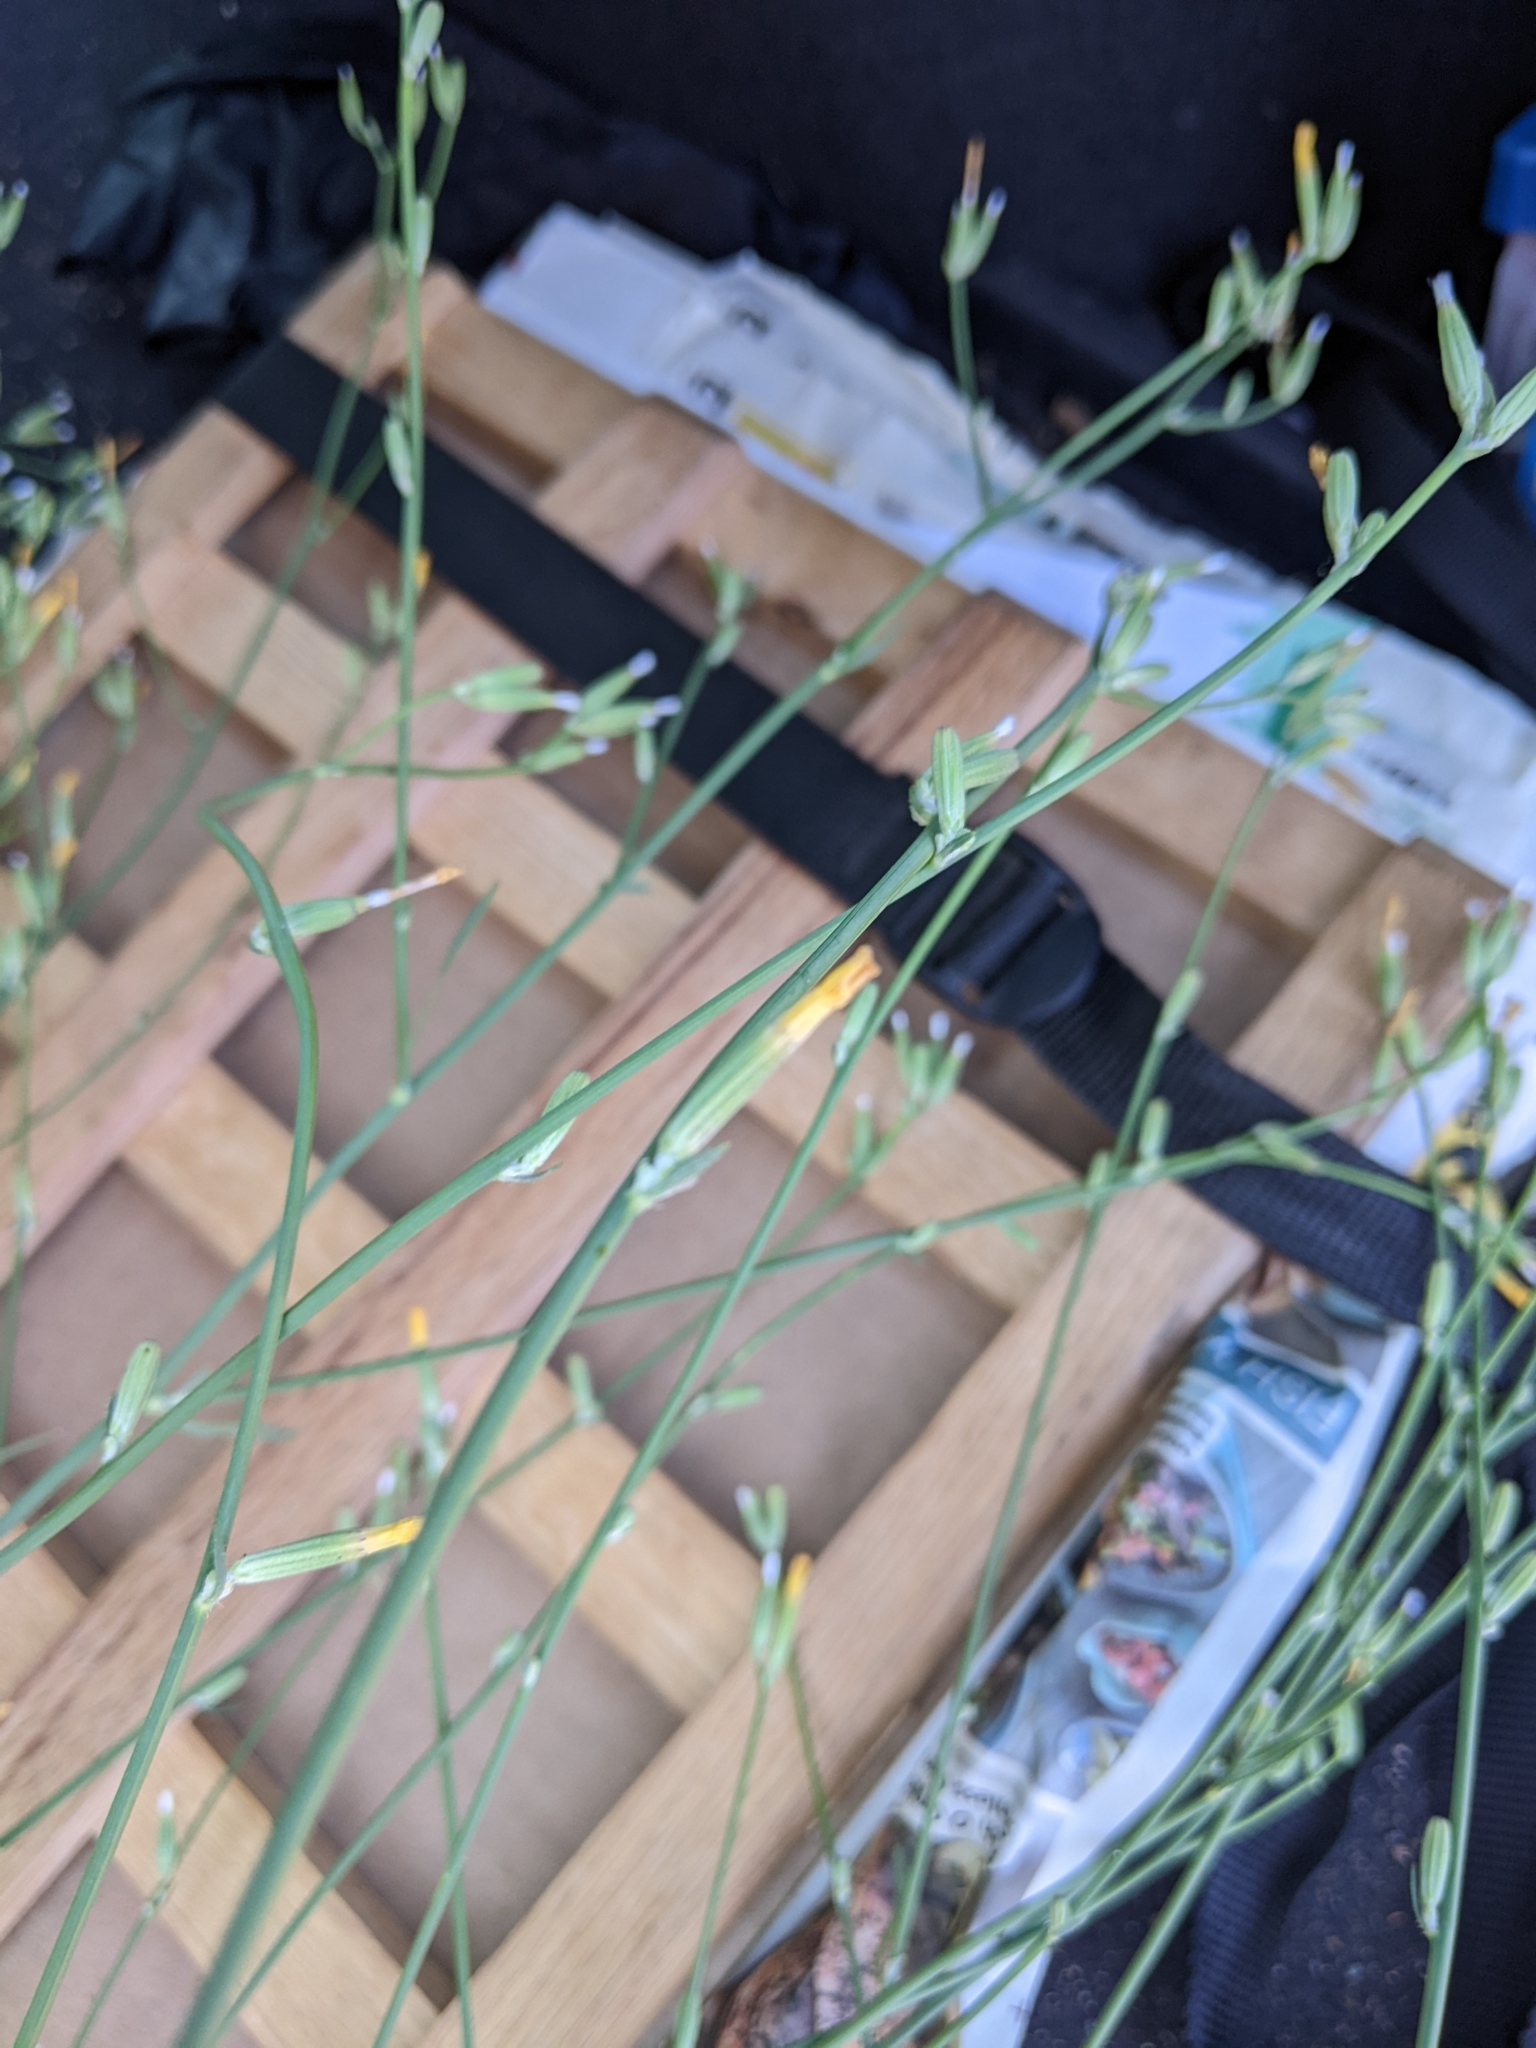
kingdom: Plantae
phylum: Tracheophyta
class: Magnoliopsida
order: Asterales
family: Asteraceae
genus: Chondrilla
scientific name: Chondrilla juncea
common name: Skeleton weed
